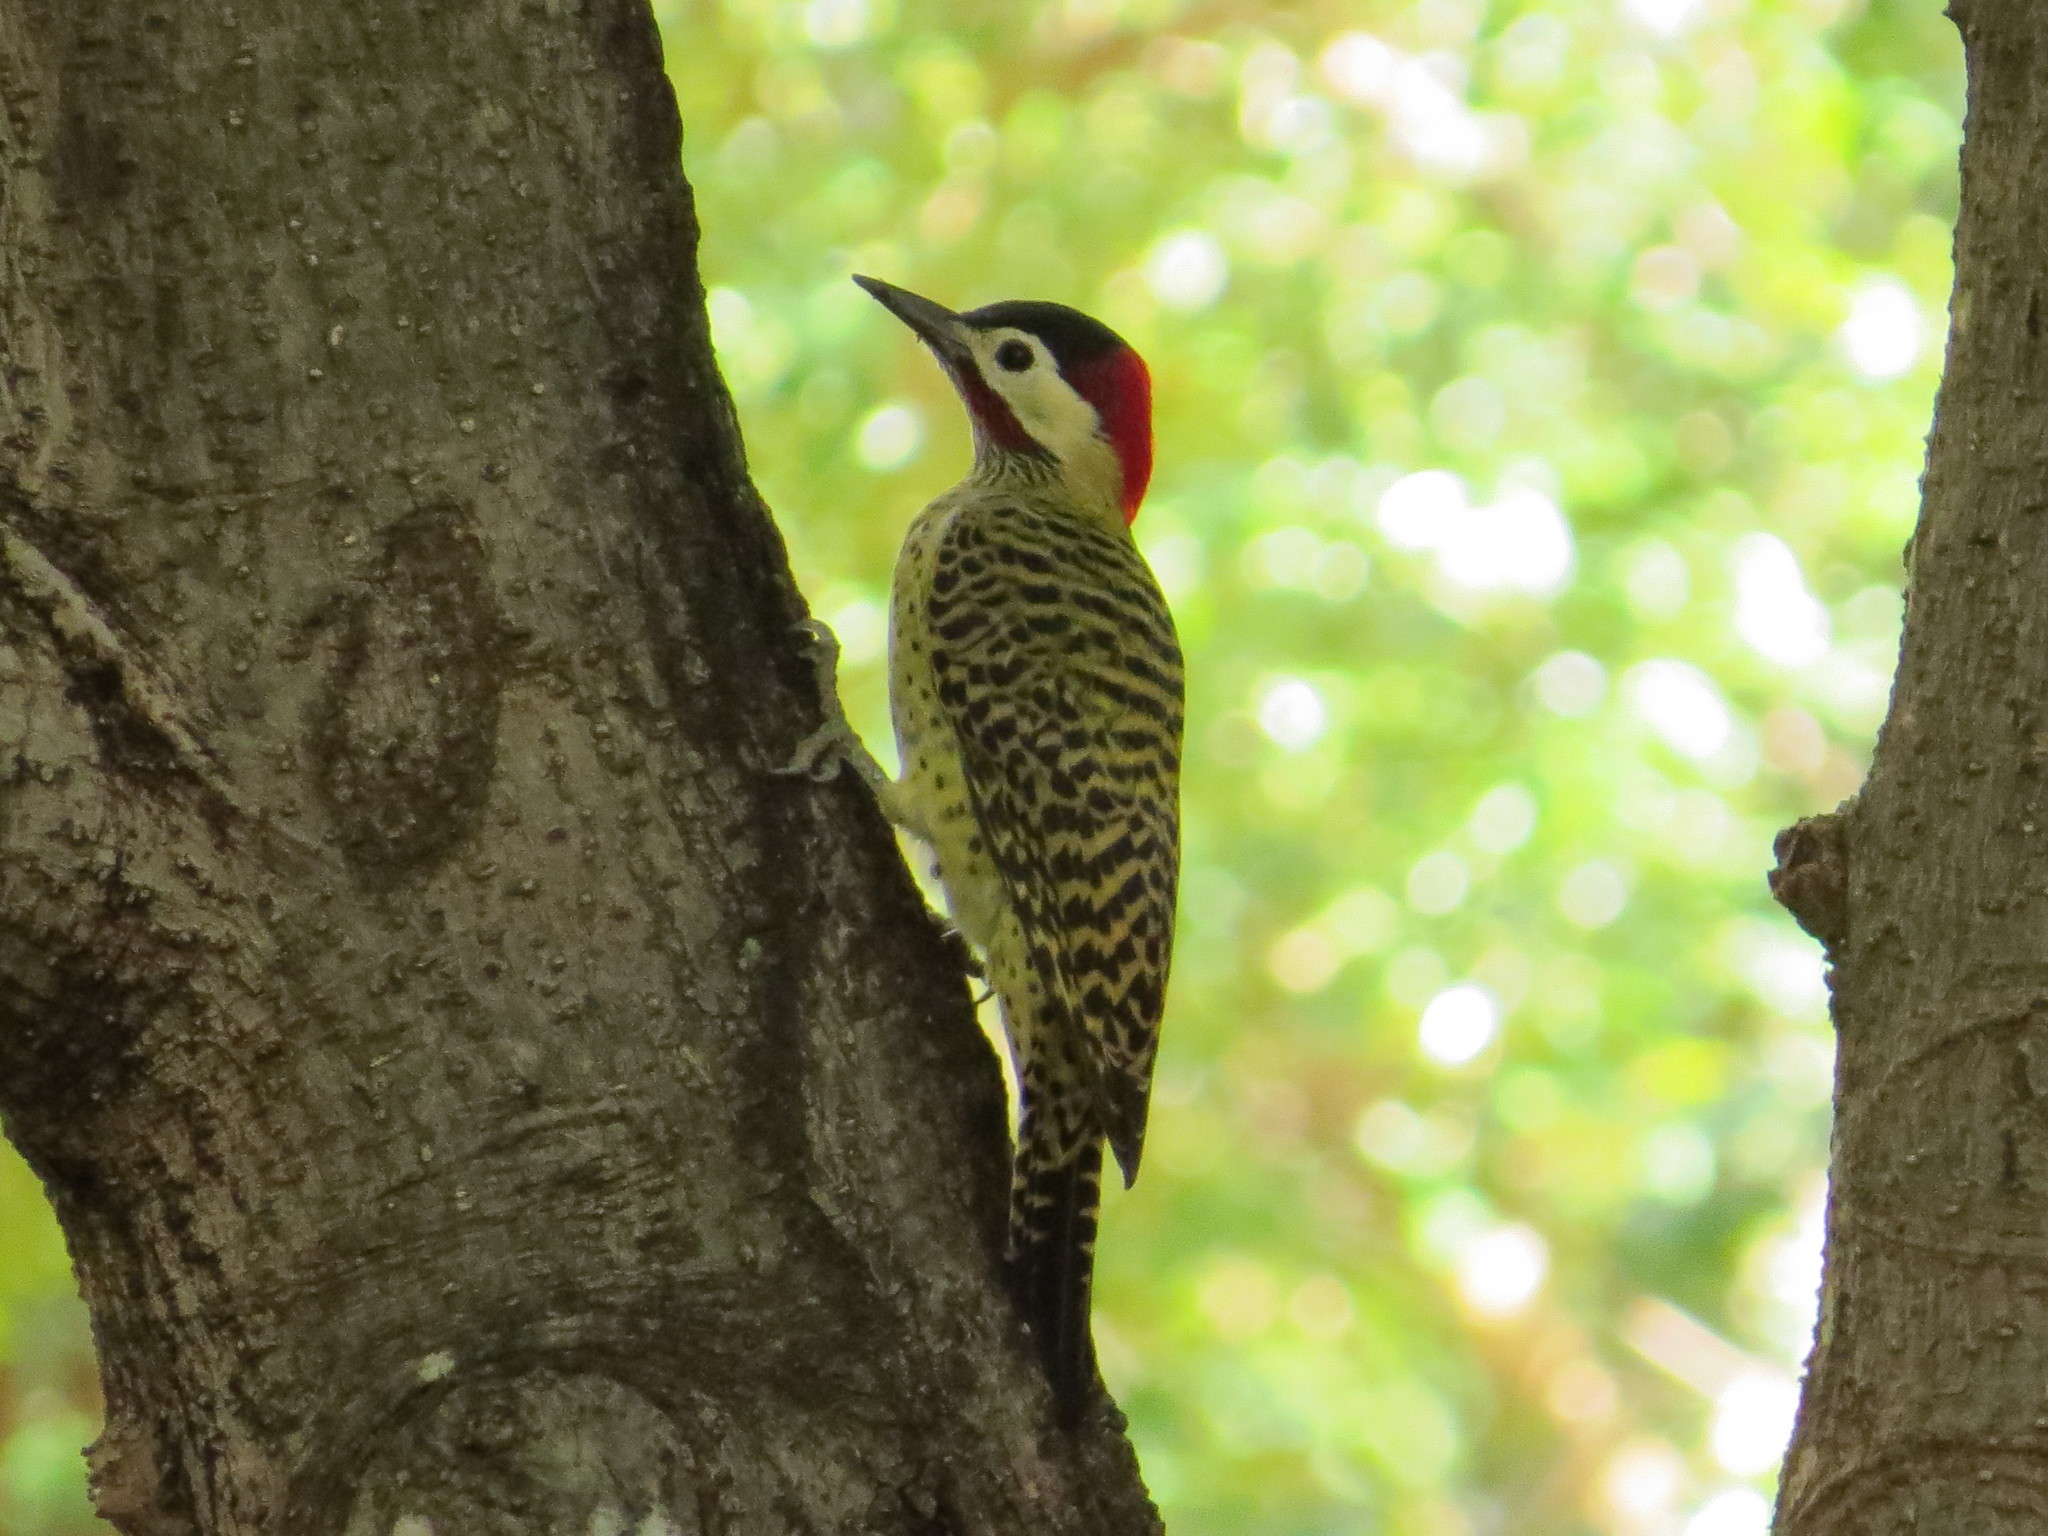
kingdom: Animalia
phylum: Chordata
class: Aves
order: Piciformes
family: Picidae
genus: Colaptes
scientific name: Colaptes melanochloros
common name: Green-barred woodpecker
